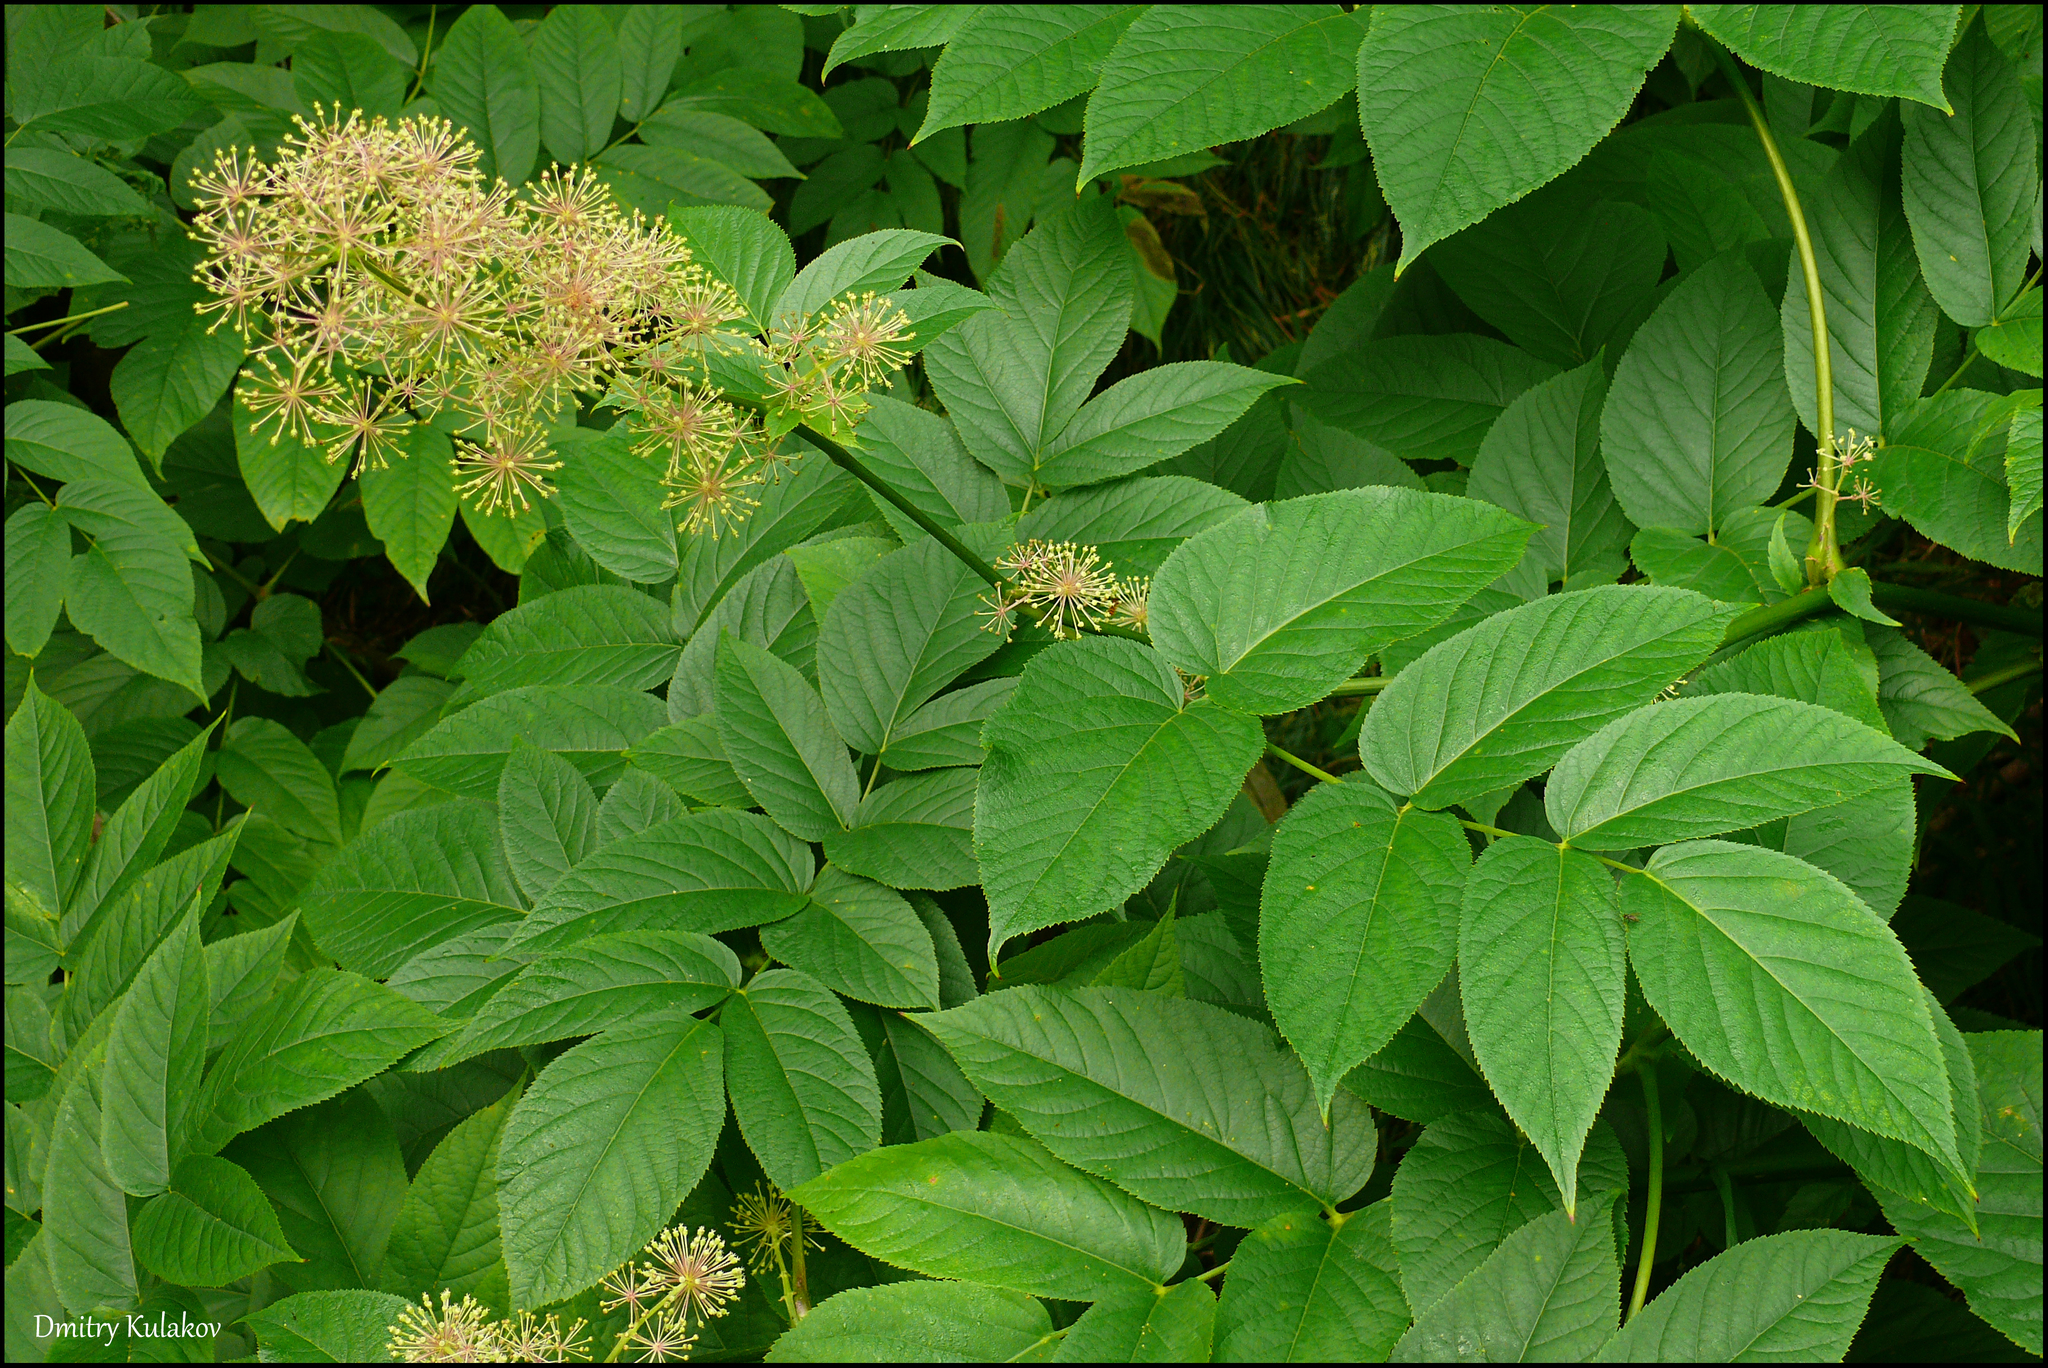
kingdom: Plantae
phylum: Tracheophyta
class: Magnoliopsida
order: Apiales
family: Araliaceae
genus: Aralia
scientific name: Aralia cordata
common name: Udo
